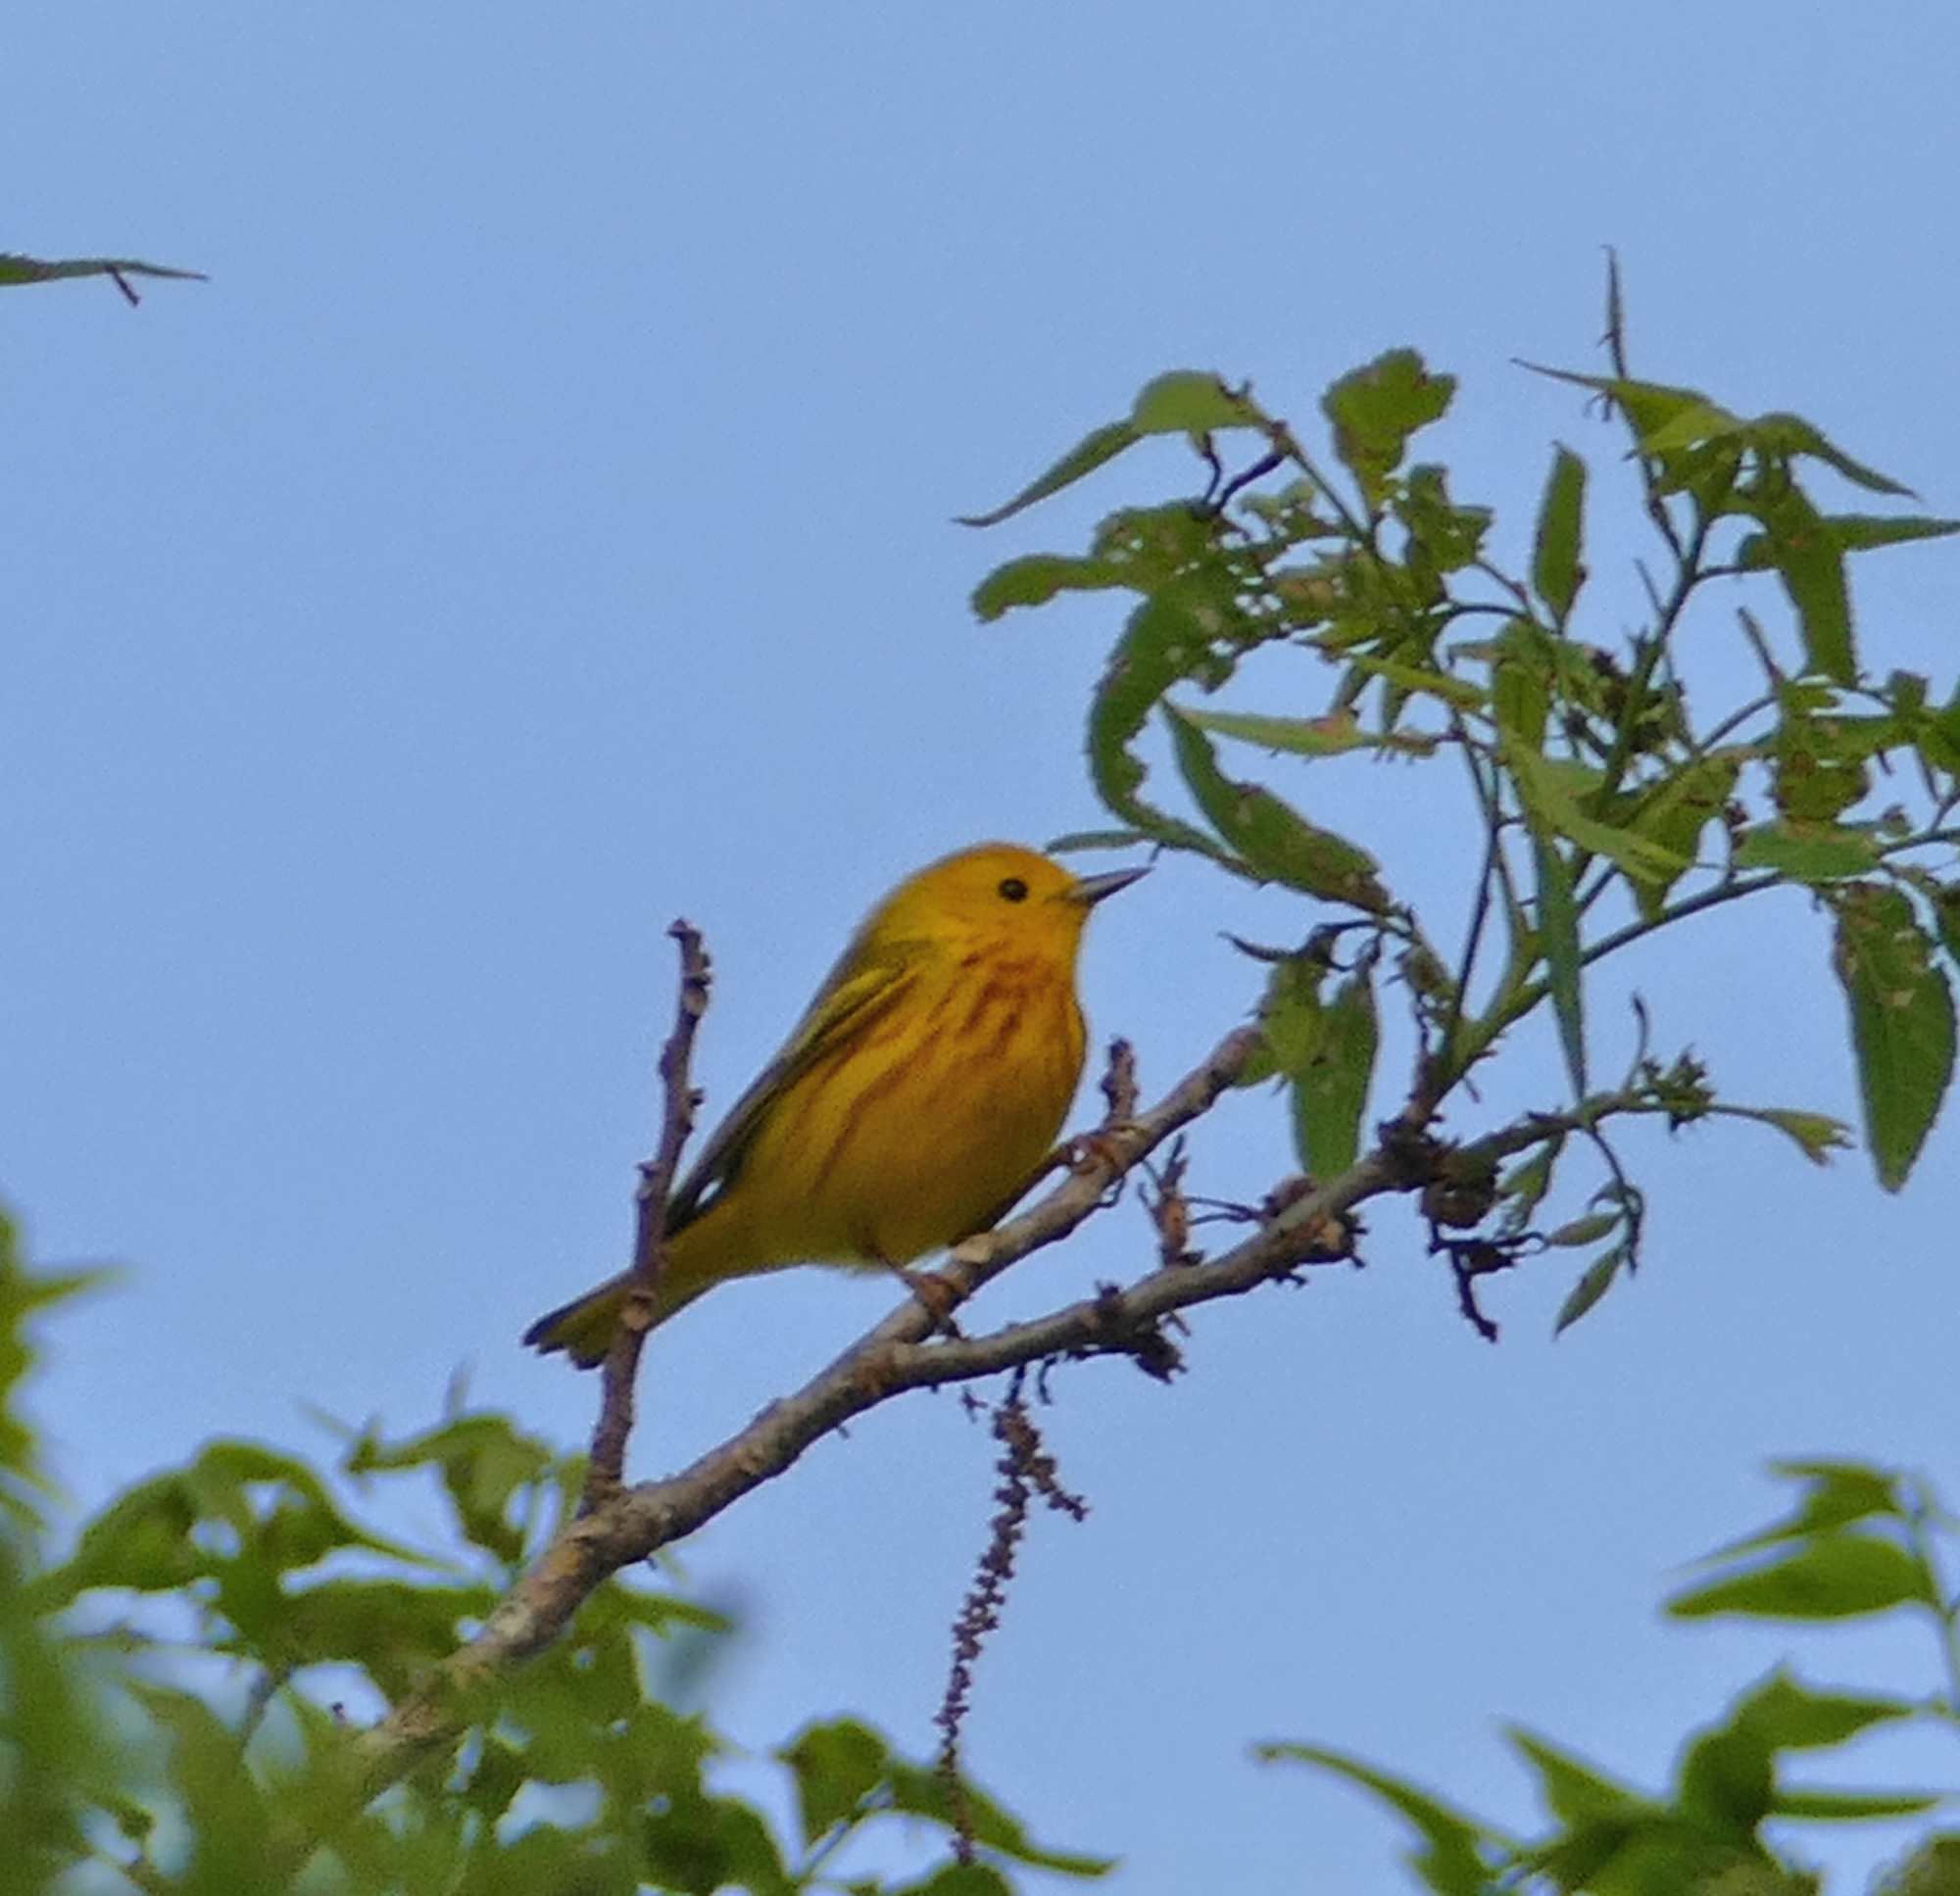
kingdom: Animalia
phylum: Chordata
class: Aves
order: Passeriformes
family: Parulidae
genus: Setophaga
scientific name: Setophaga petechia
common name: Yellow warbler
